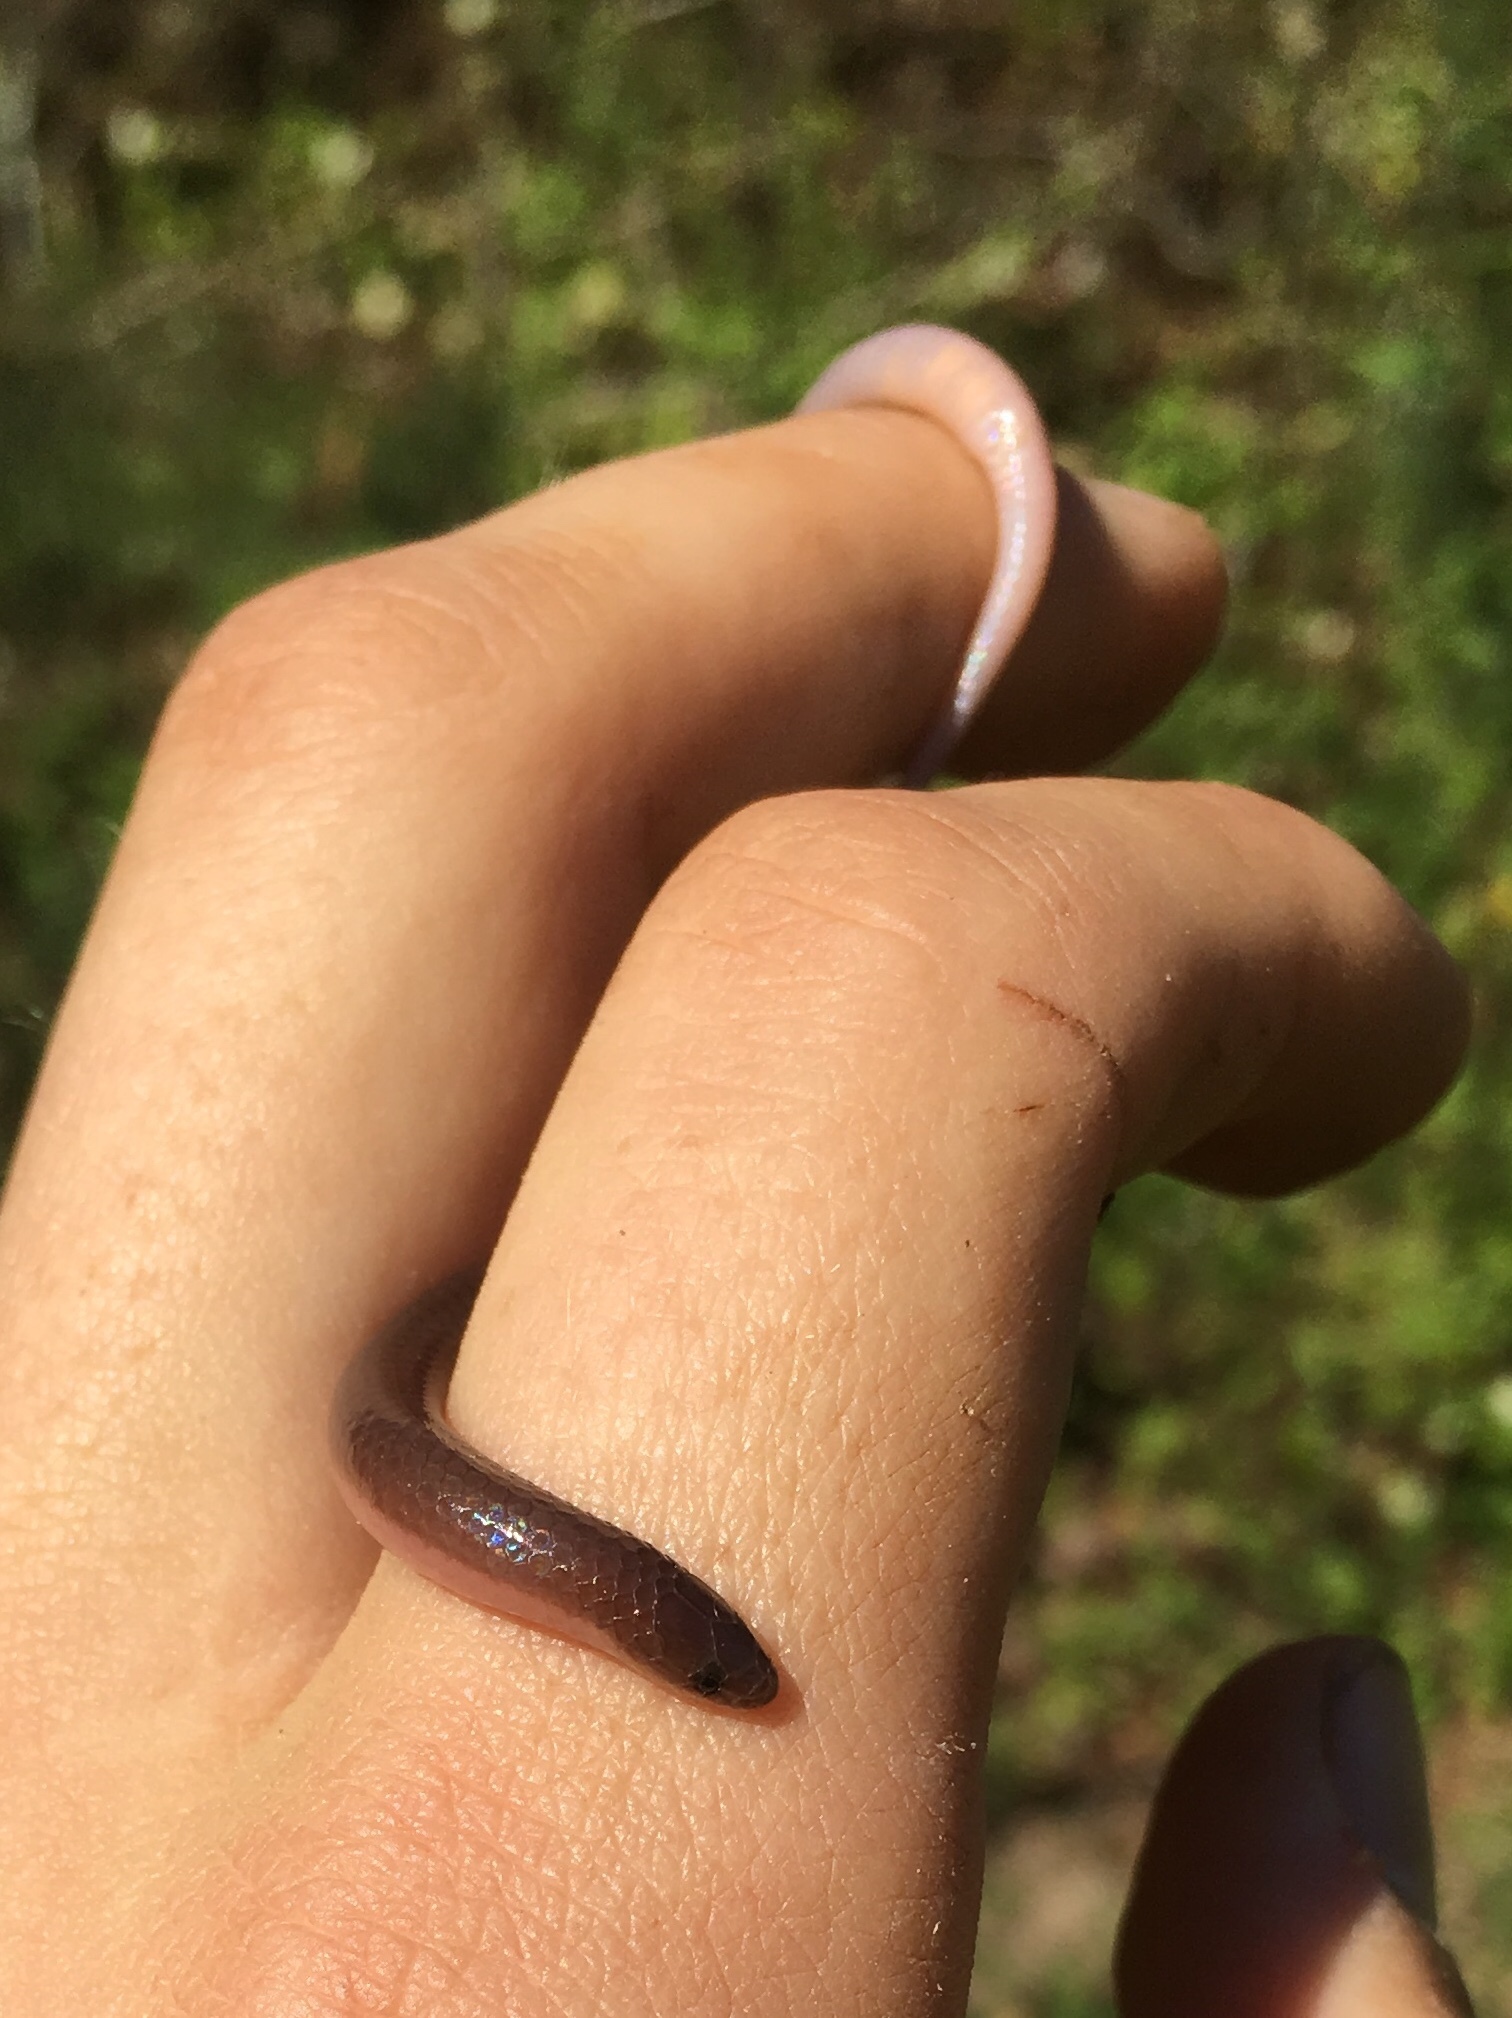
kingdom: Animalia
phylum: Chordata
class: Squamata
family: Colubridae
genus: Carphophis
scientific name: Carphophis amoenus
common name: Eastern worm snake
